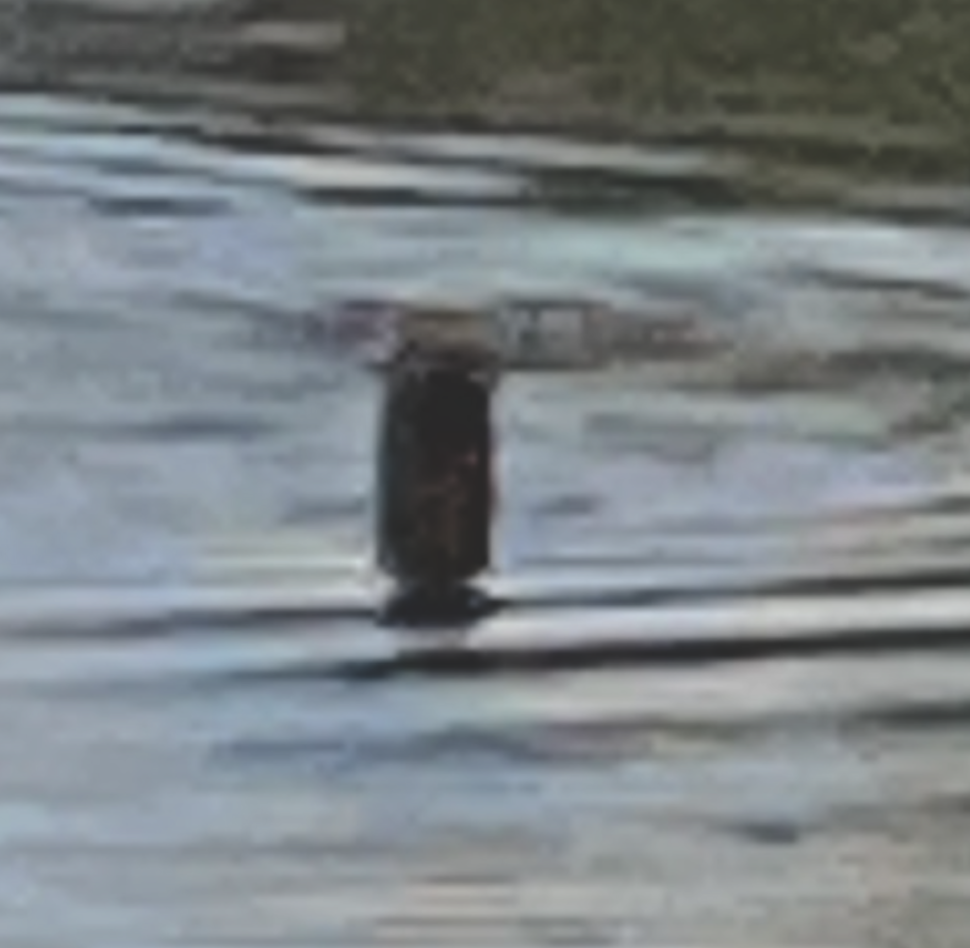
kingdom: Animalia
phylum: Chordata
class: Mammalia
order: Carnivora
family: Mustelidae
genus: Lontra
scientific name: Lontra canadensis
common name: North american river otter
